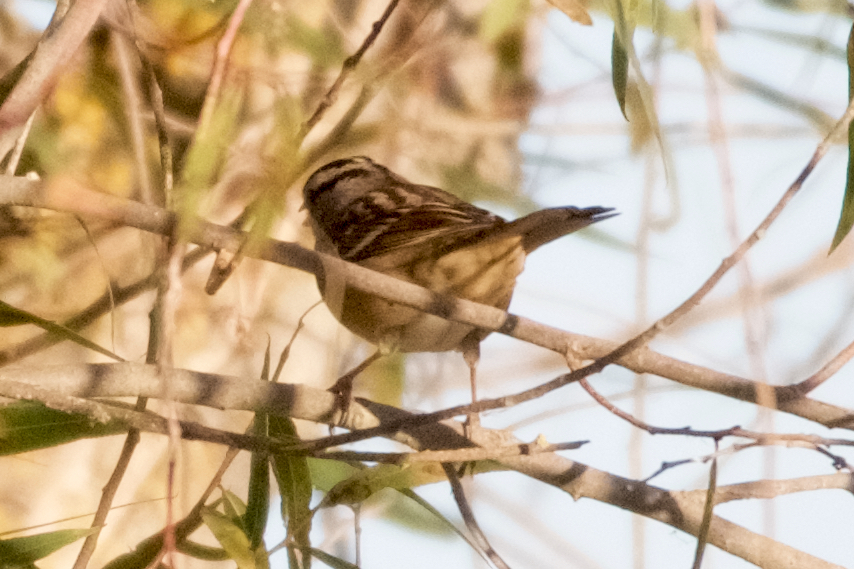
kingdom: Animalia
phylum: Chordata
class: Aves
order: Passeriformes
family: Passerellidae
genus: Zonotrichia
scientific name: Zonotrichia leucophrys
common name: White-crowned sparrow
